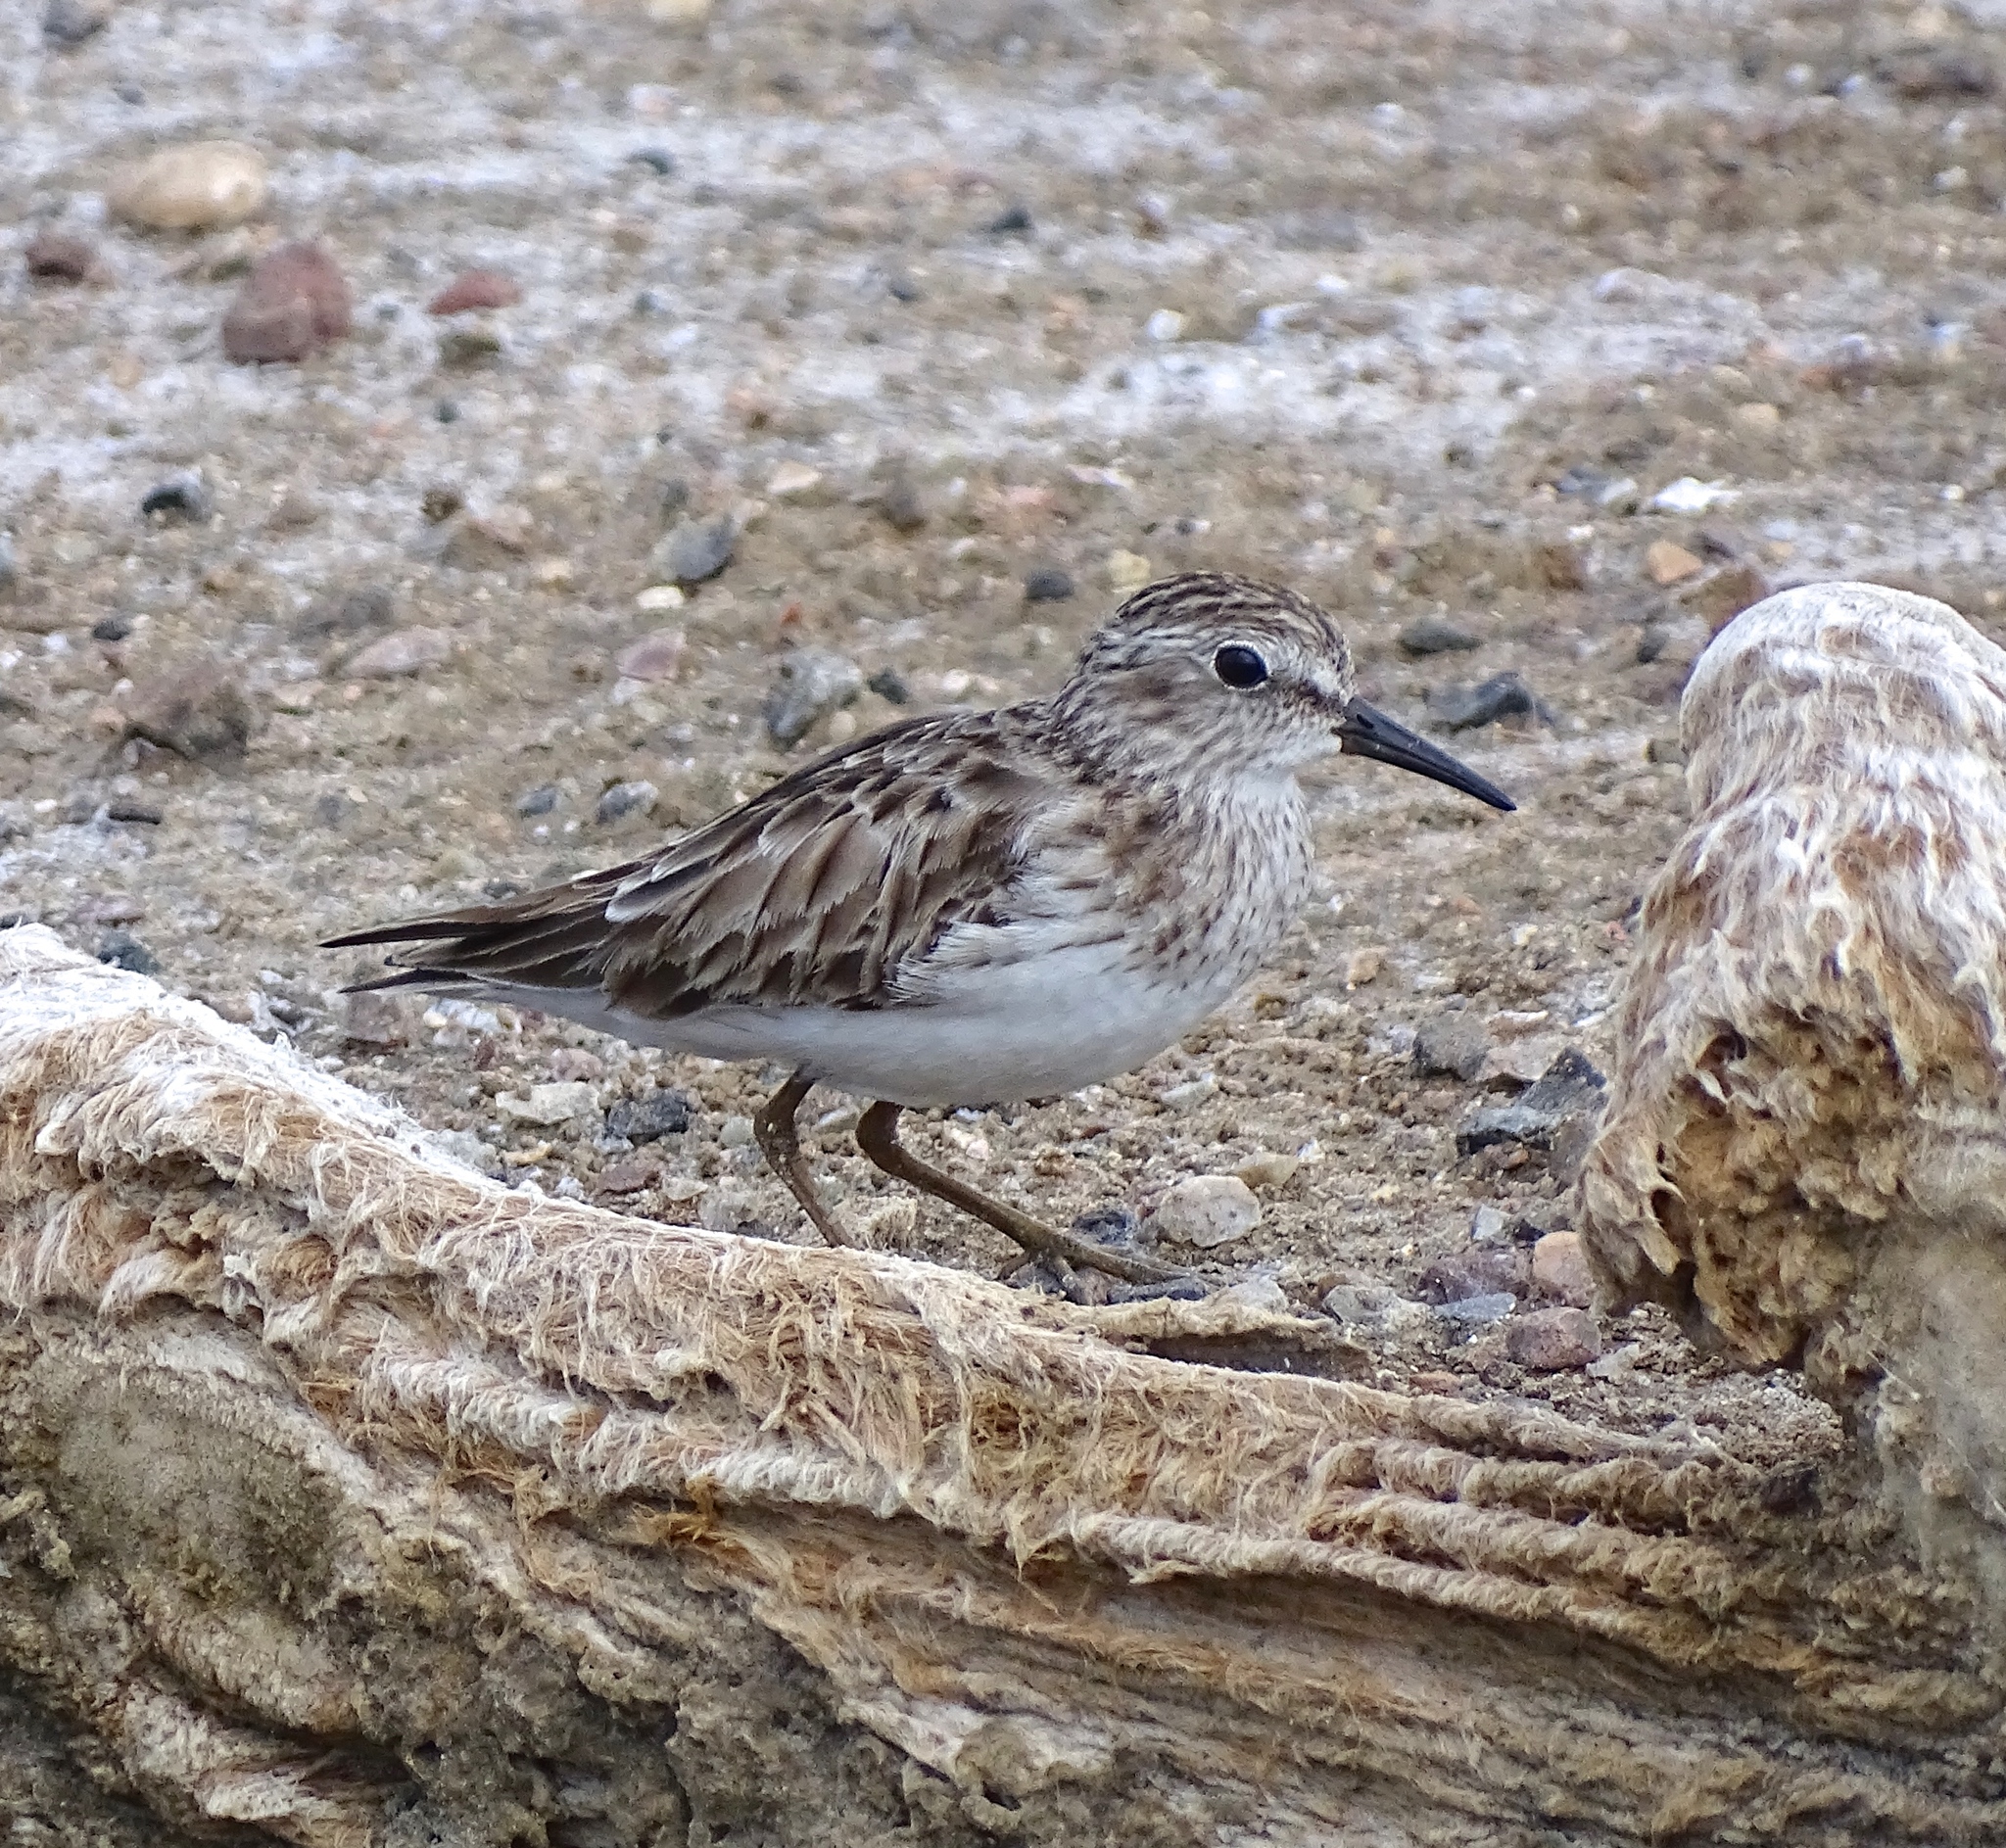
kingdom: Animalia
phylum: Chordata
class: Aves
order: Charadriiformes
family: Scolopacidae
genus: Calidris
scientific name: Calidris minutilla
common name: Least sandpiper
